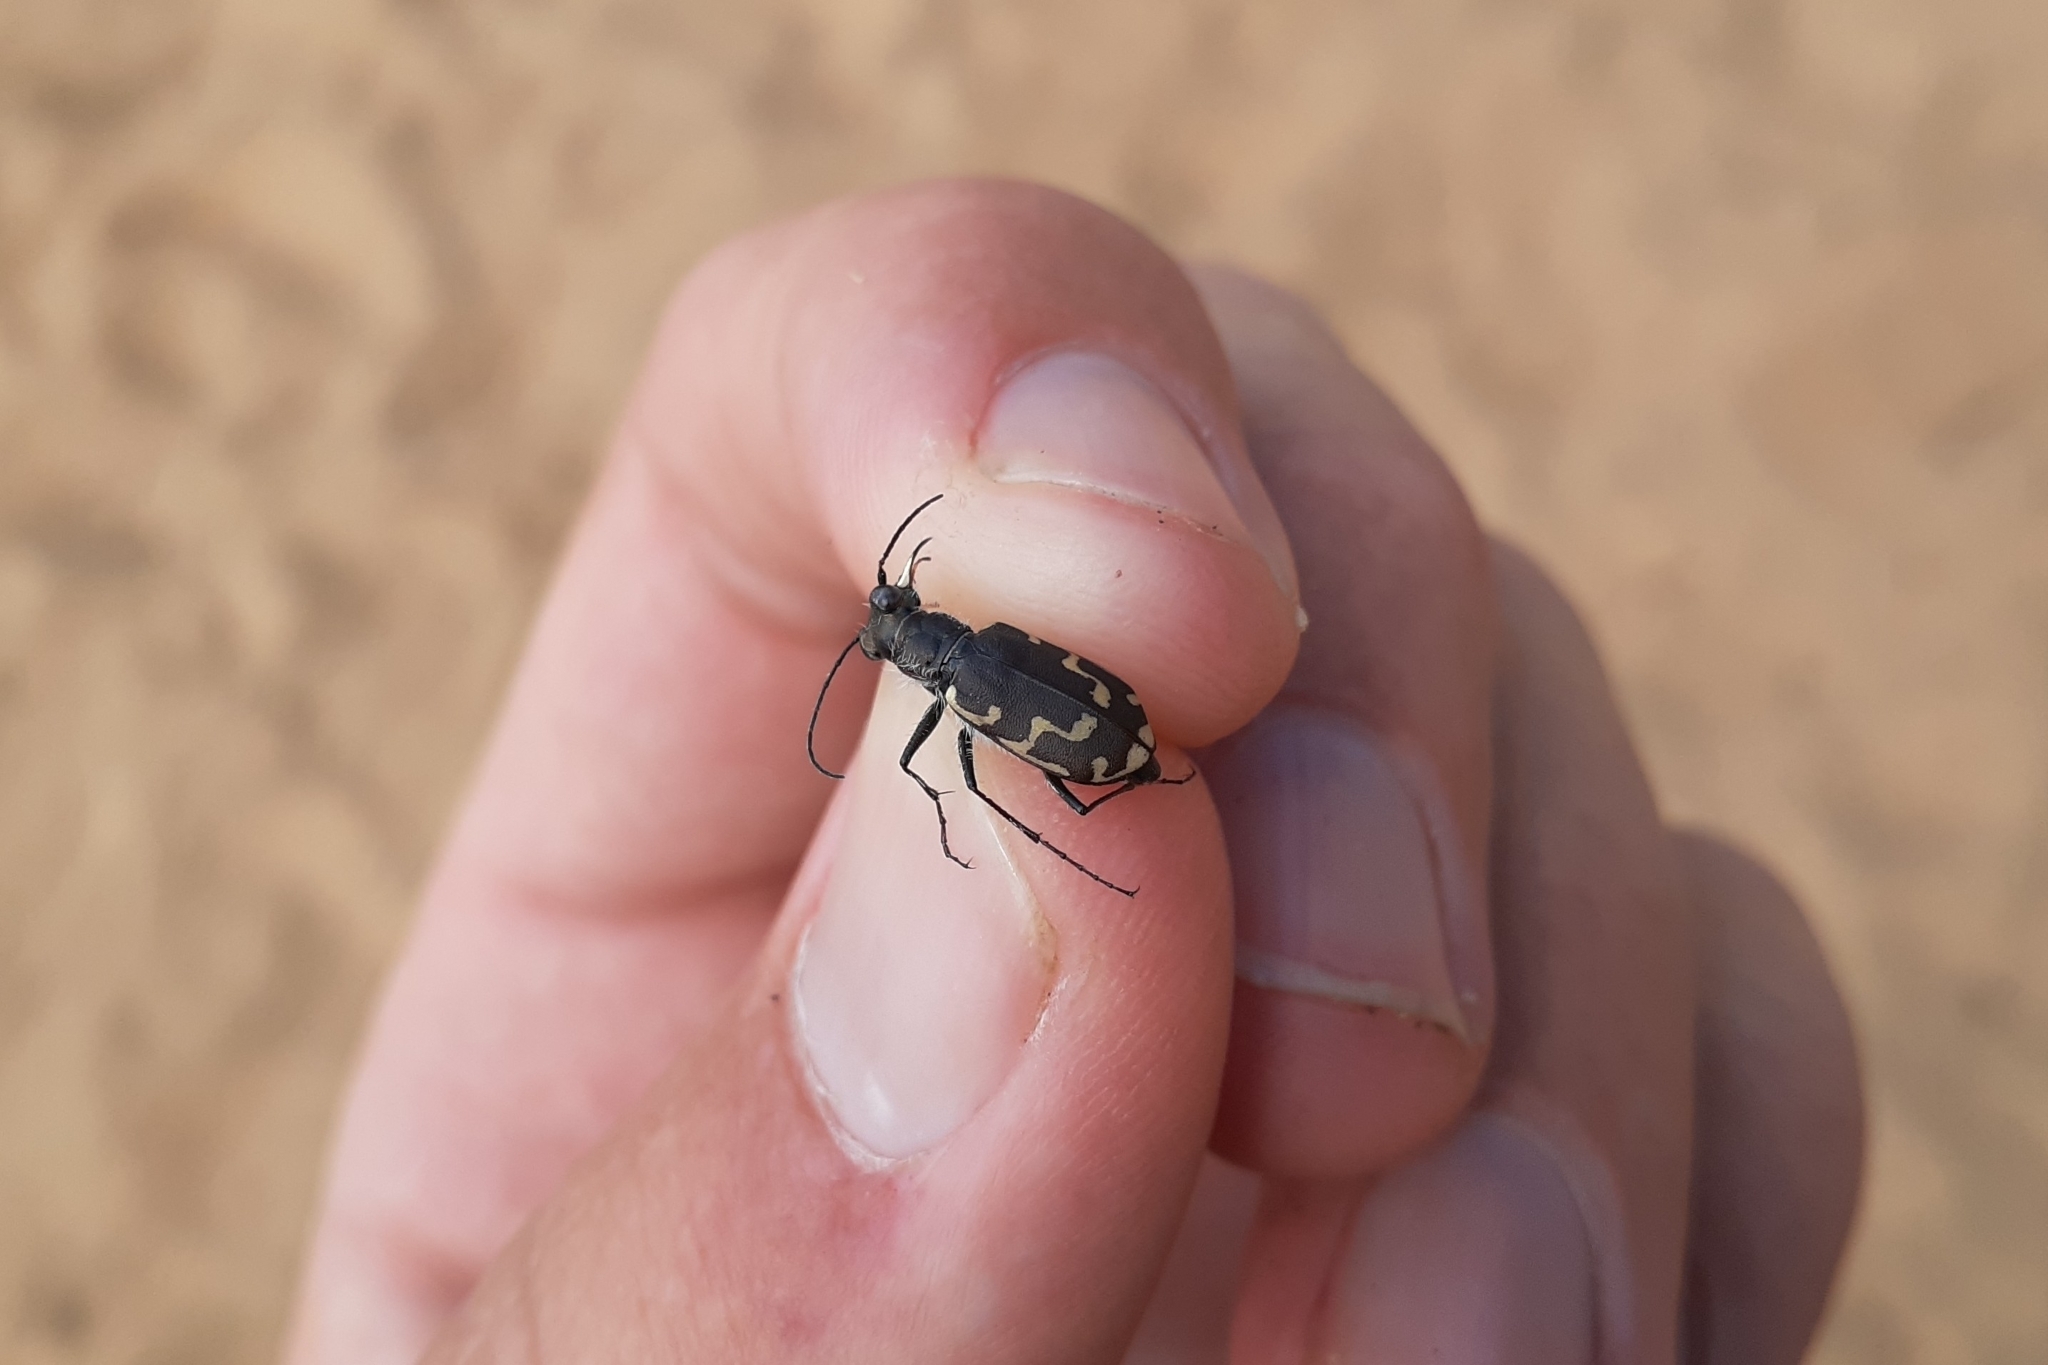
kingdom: Animalia
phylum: Arthropoda
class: Insecta
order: Coleoptera
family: Carabidae
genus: Cicindela
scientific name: Cicindela repanda
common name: Bronzed tiger beetle
